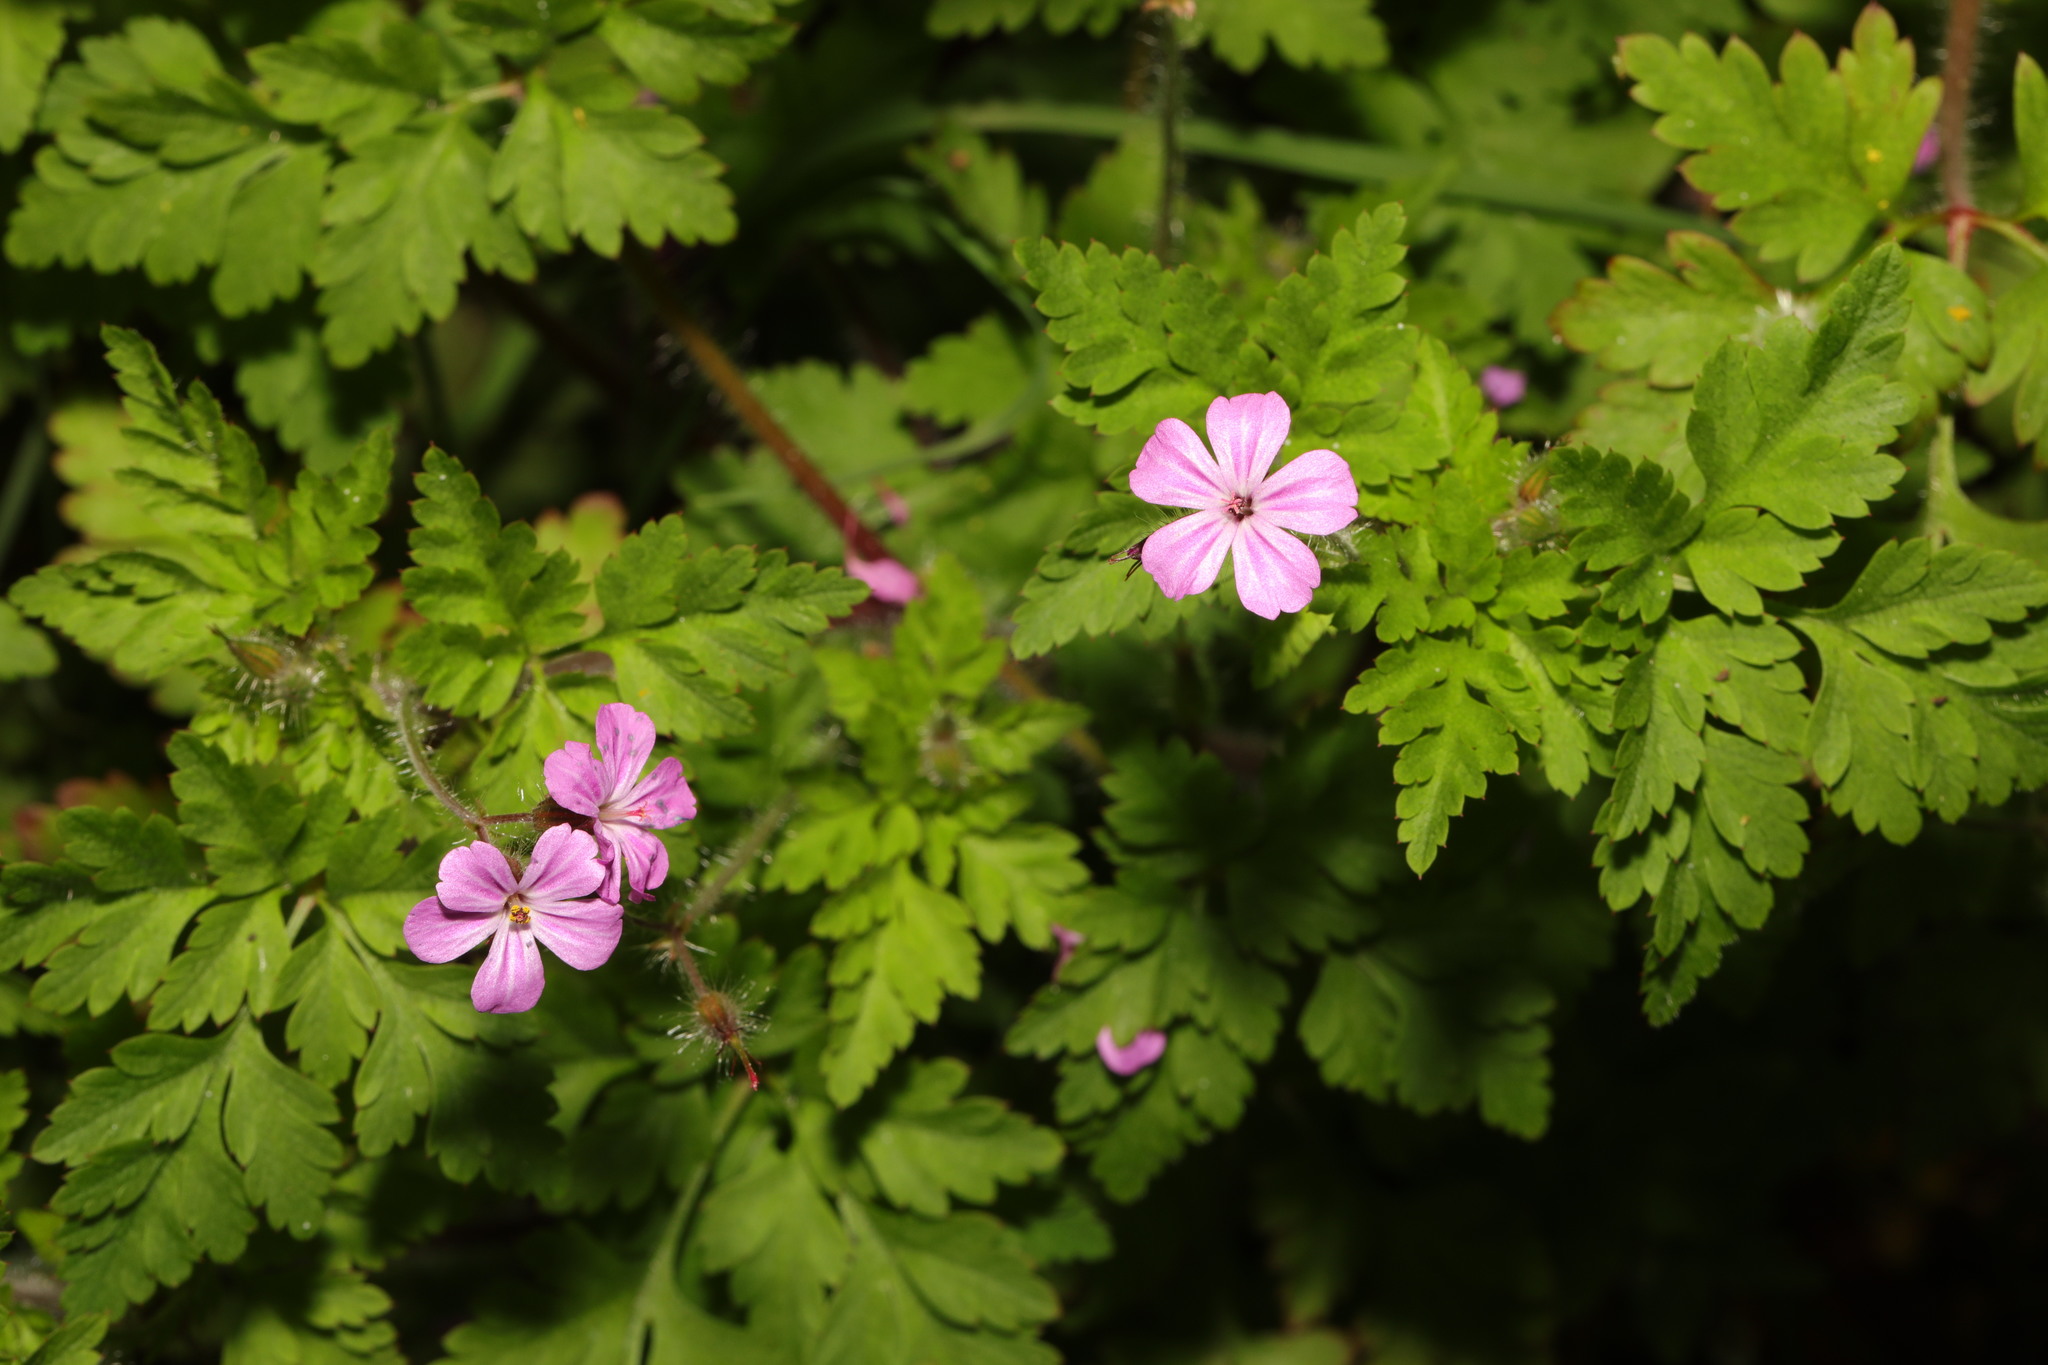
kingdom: Plantae
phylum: Tracheophyta
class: Magnoliopsida
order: Geraniales
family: Geraniaceae
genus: Geranium
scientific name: Geranium robertianum
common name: Herb-robert
